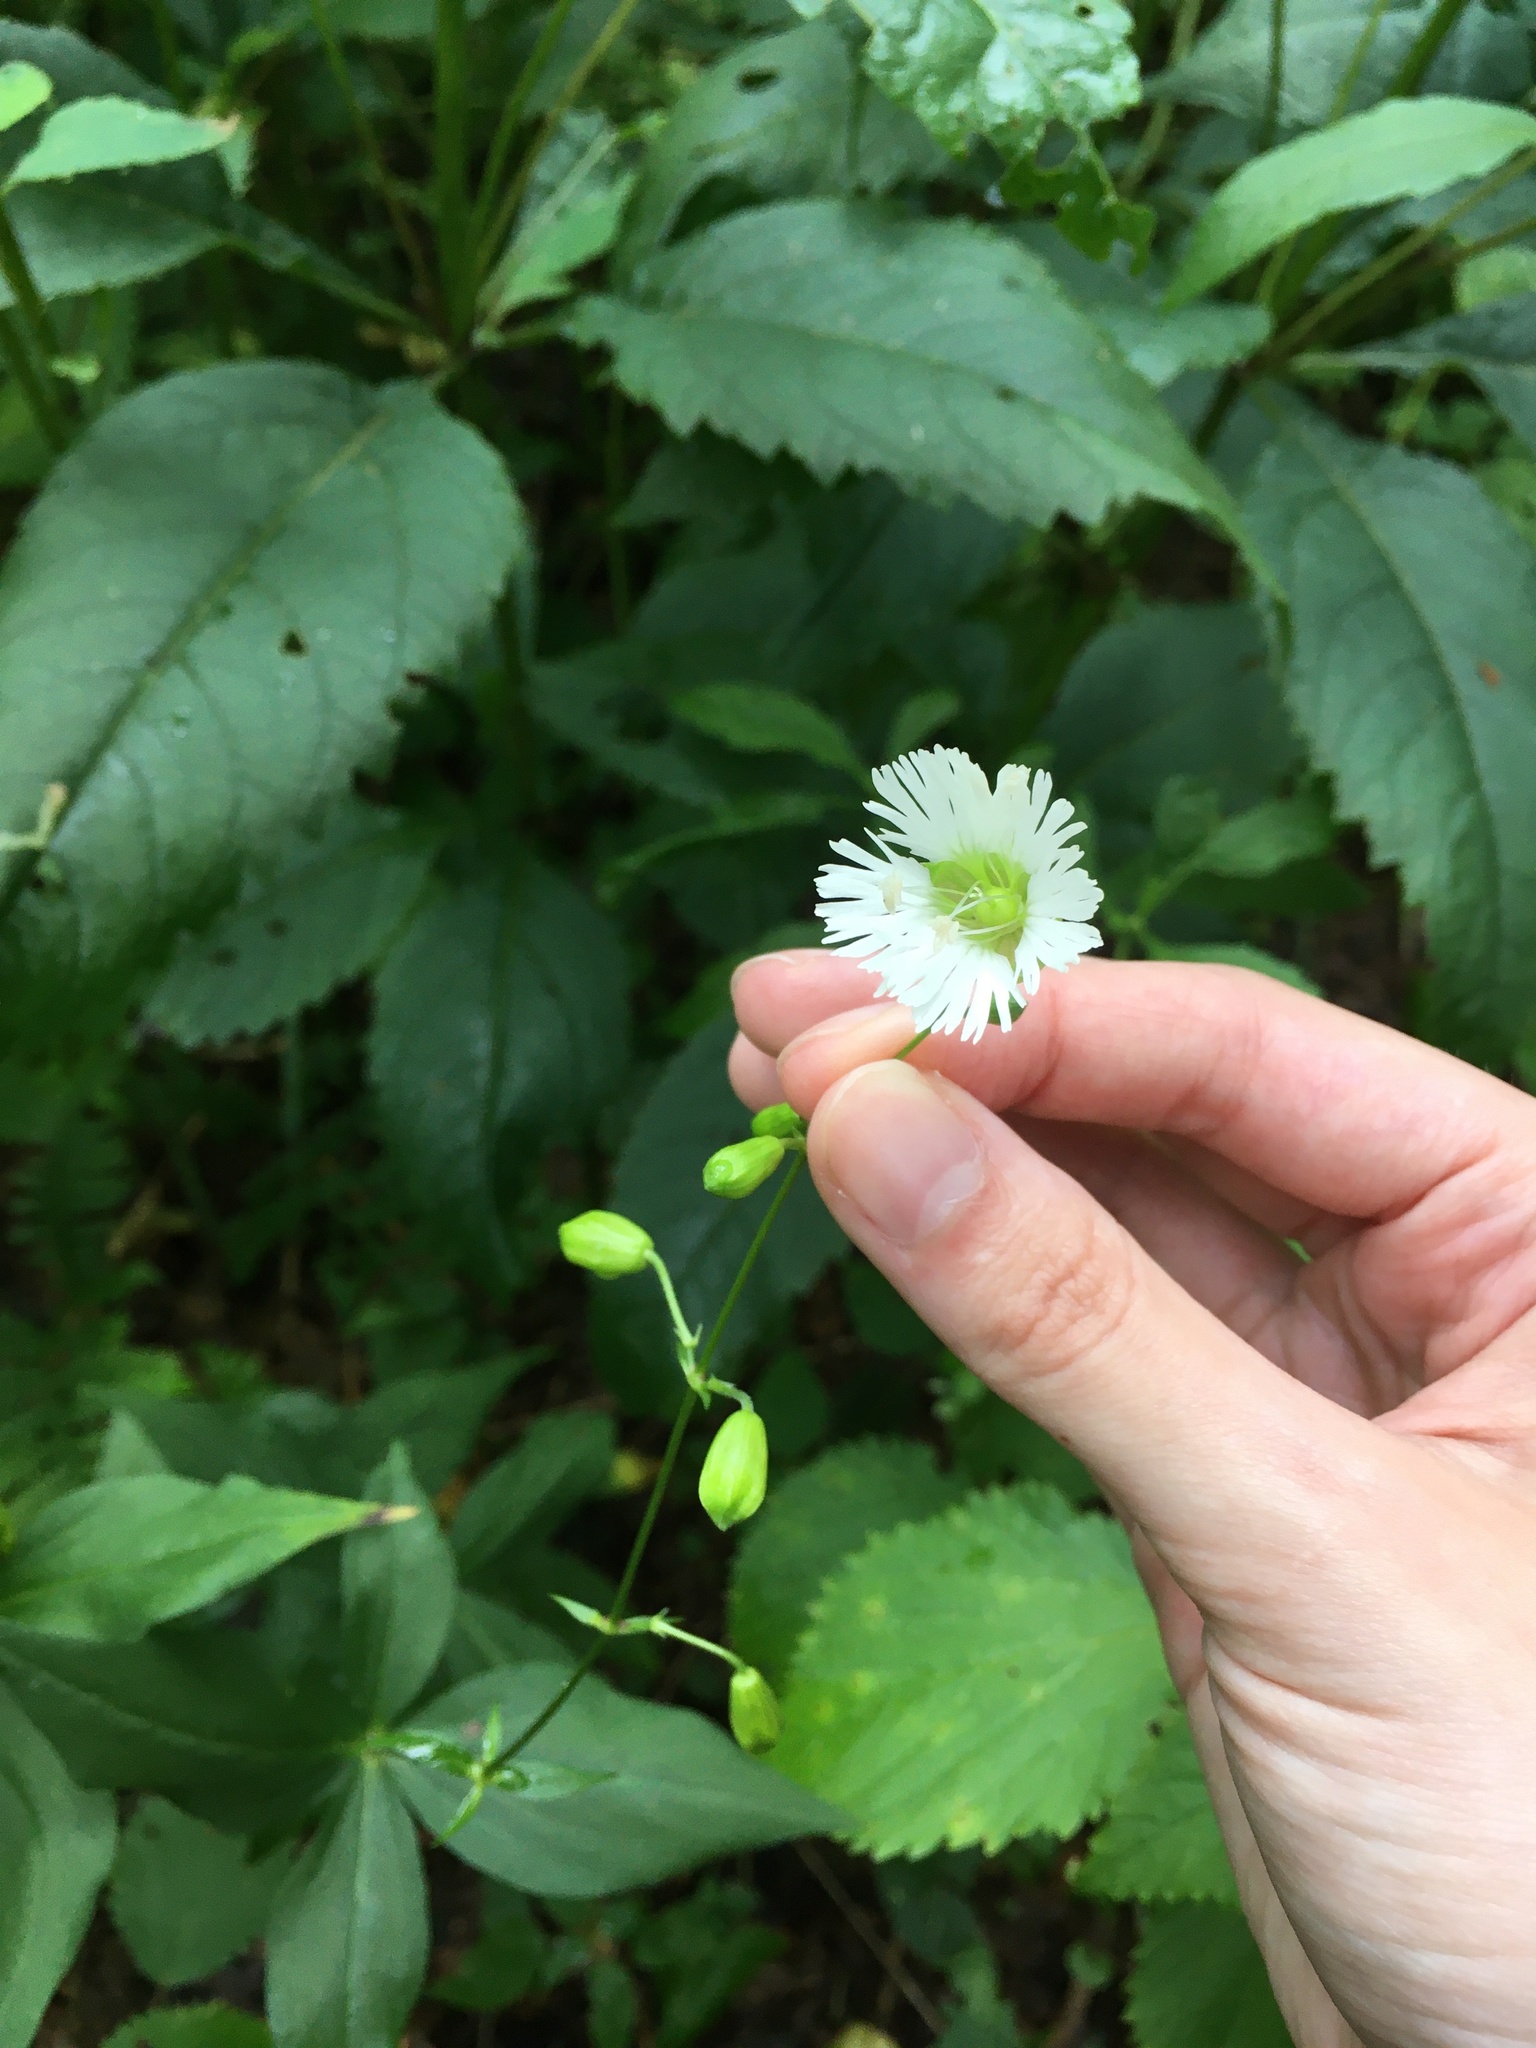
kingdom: Plantae
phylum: Tracheophyta
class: Magnoliopsida
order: Caryophyllales
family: Caryophyllaceae
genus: Silene
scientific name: Silene stellata
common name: Starry campion
